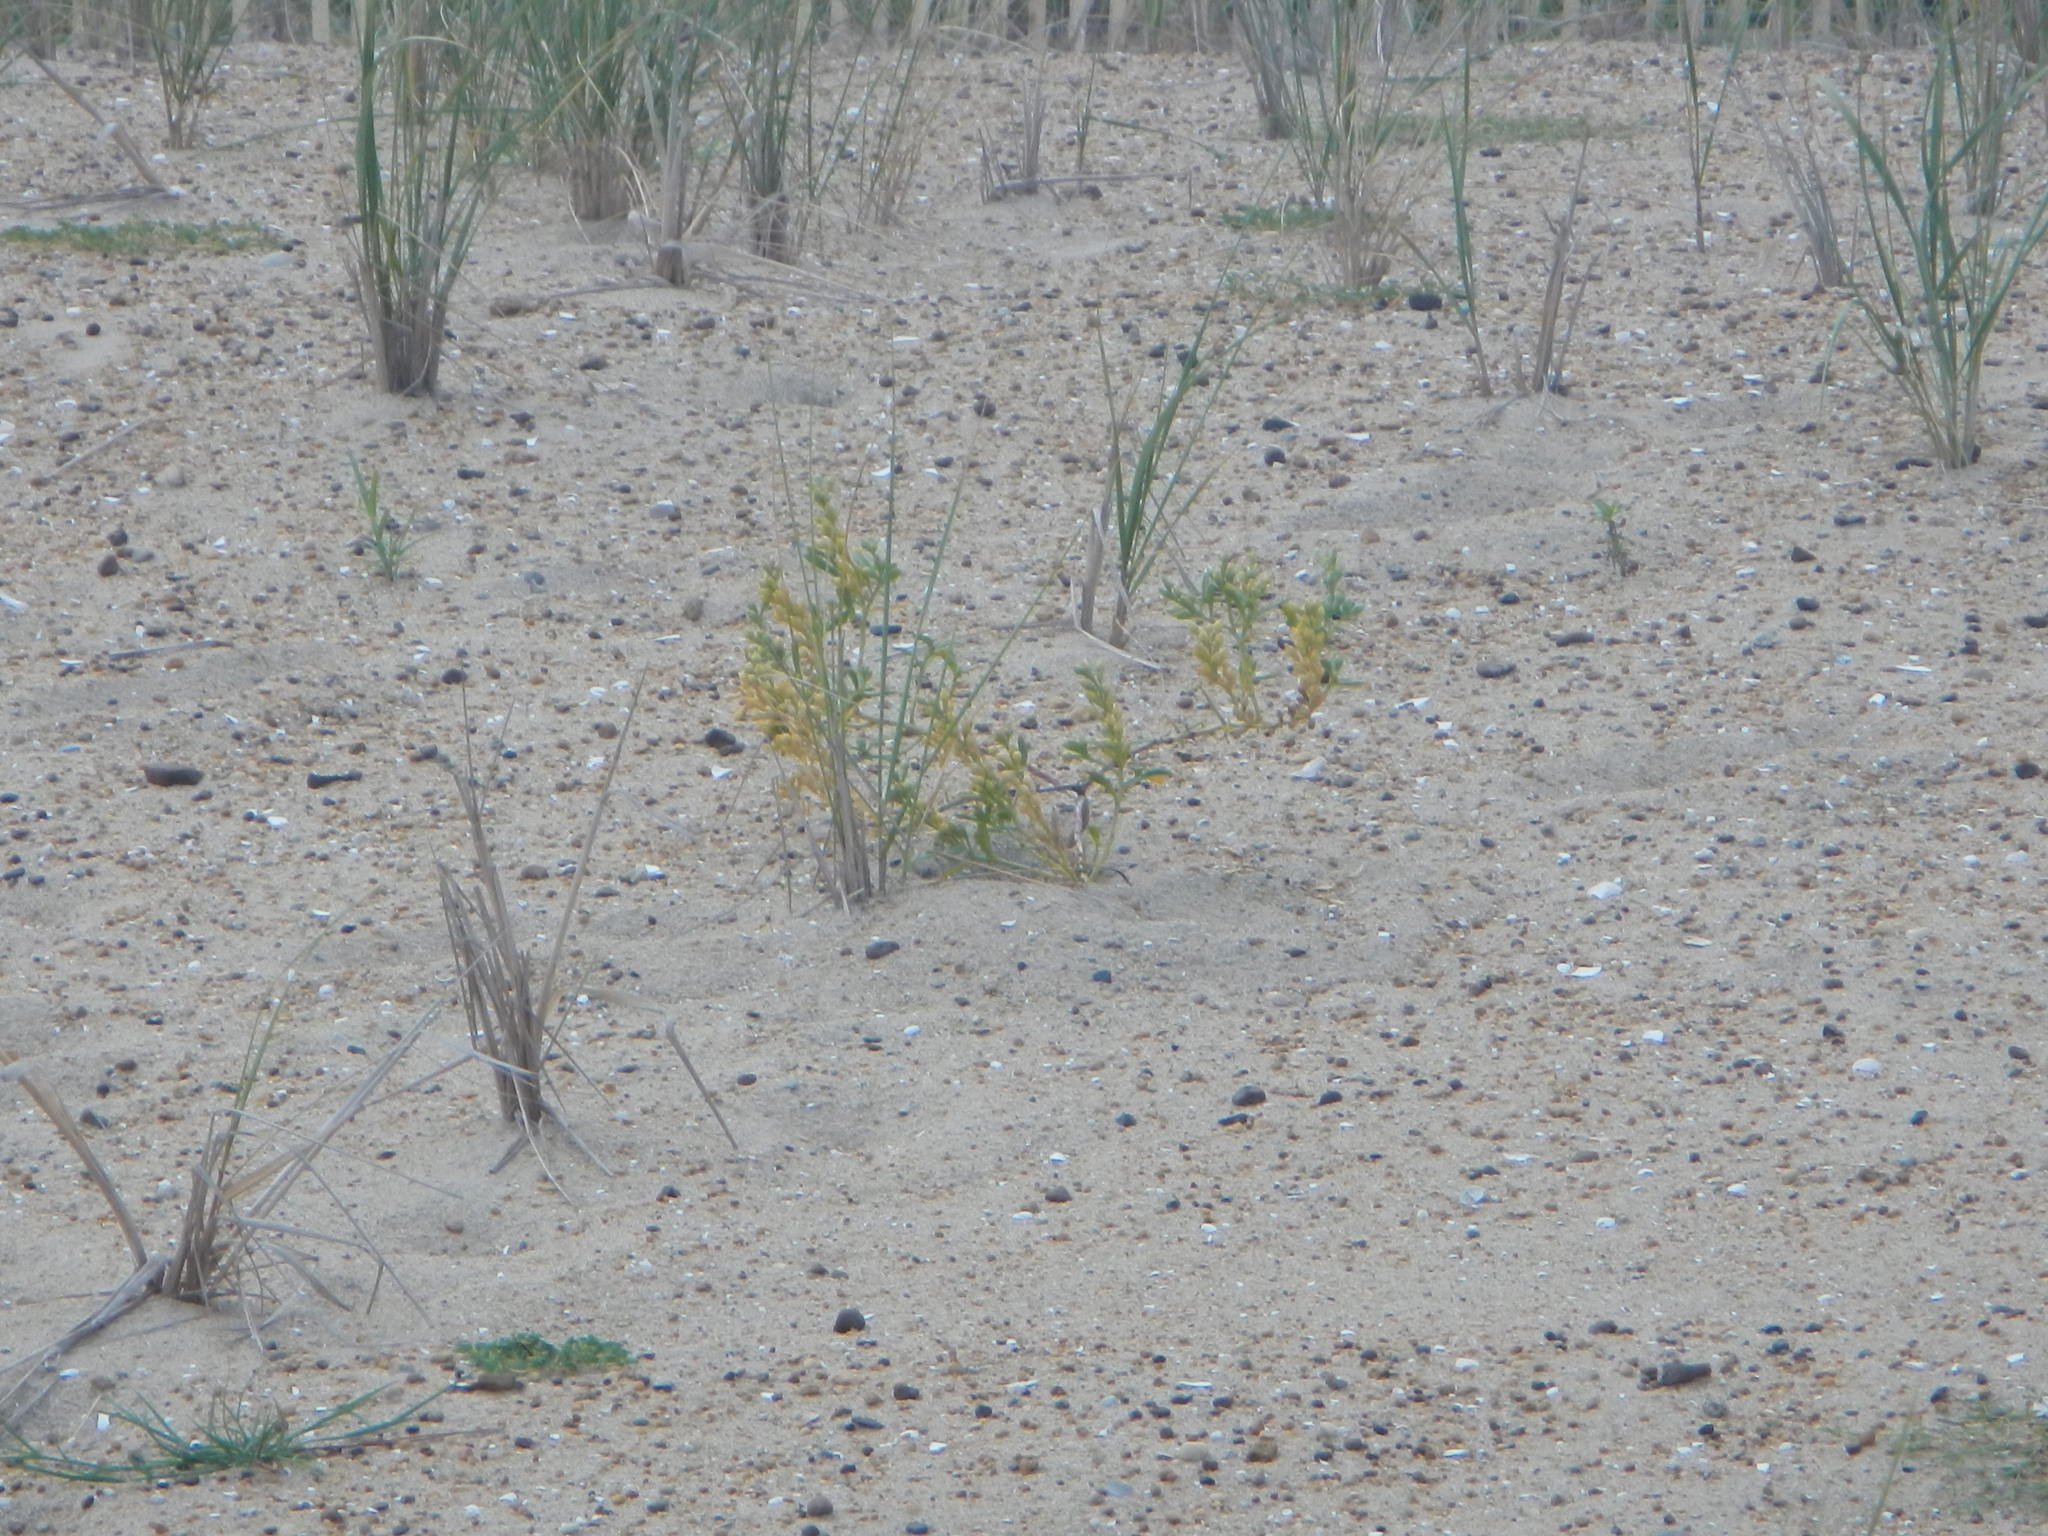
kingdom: Plantae
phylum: Tracheophyta
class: Magnoliopsida
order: Brassicales
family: Brassicaceae
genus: Cakile
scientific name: Cakile edentula
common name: American sea rocket
